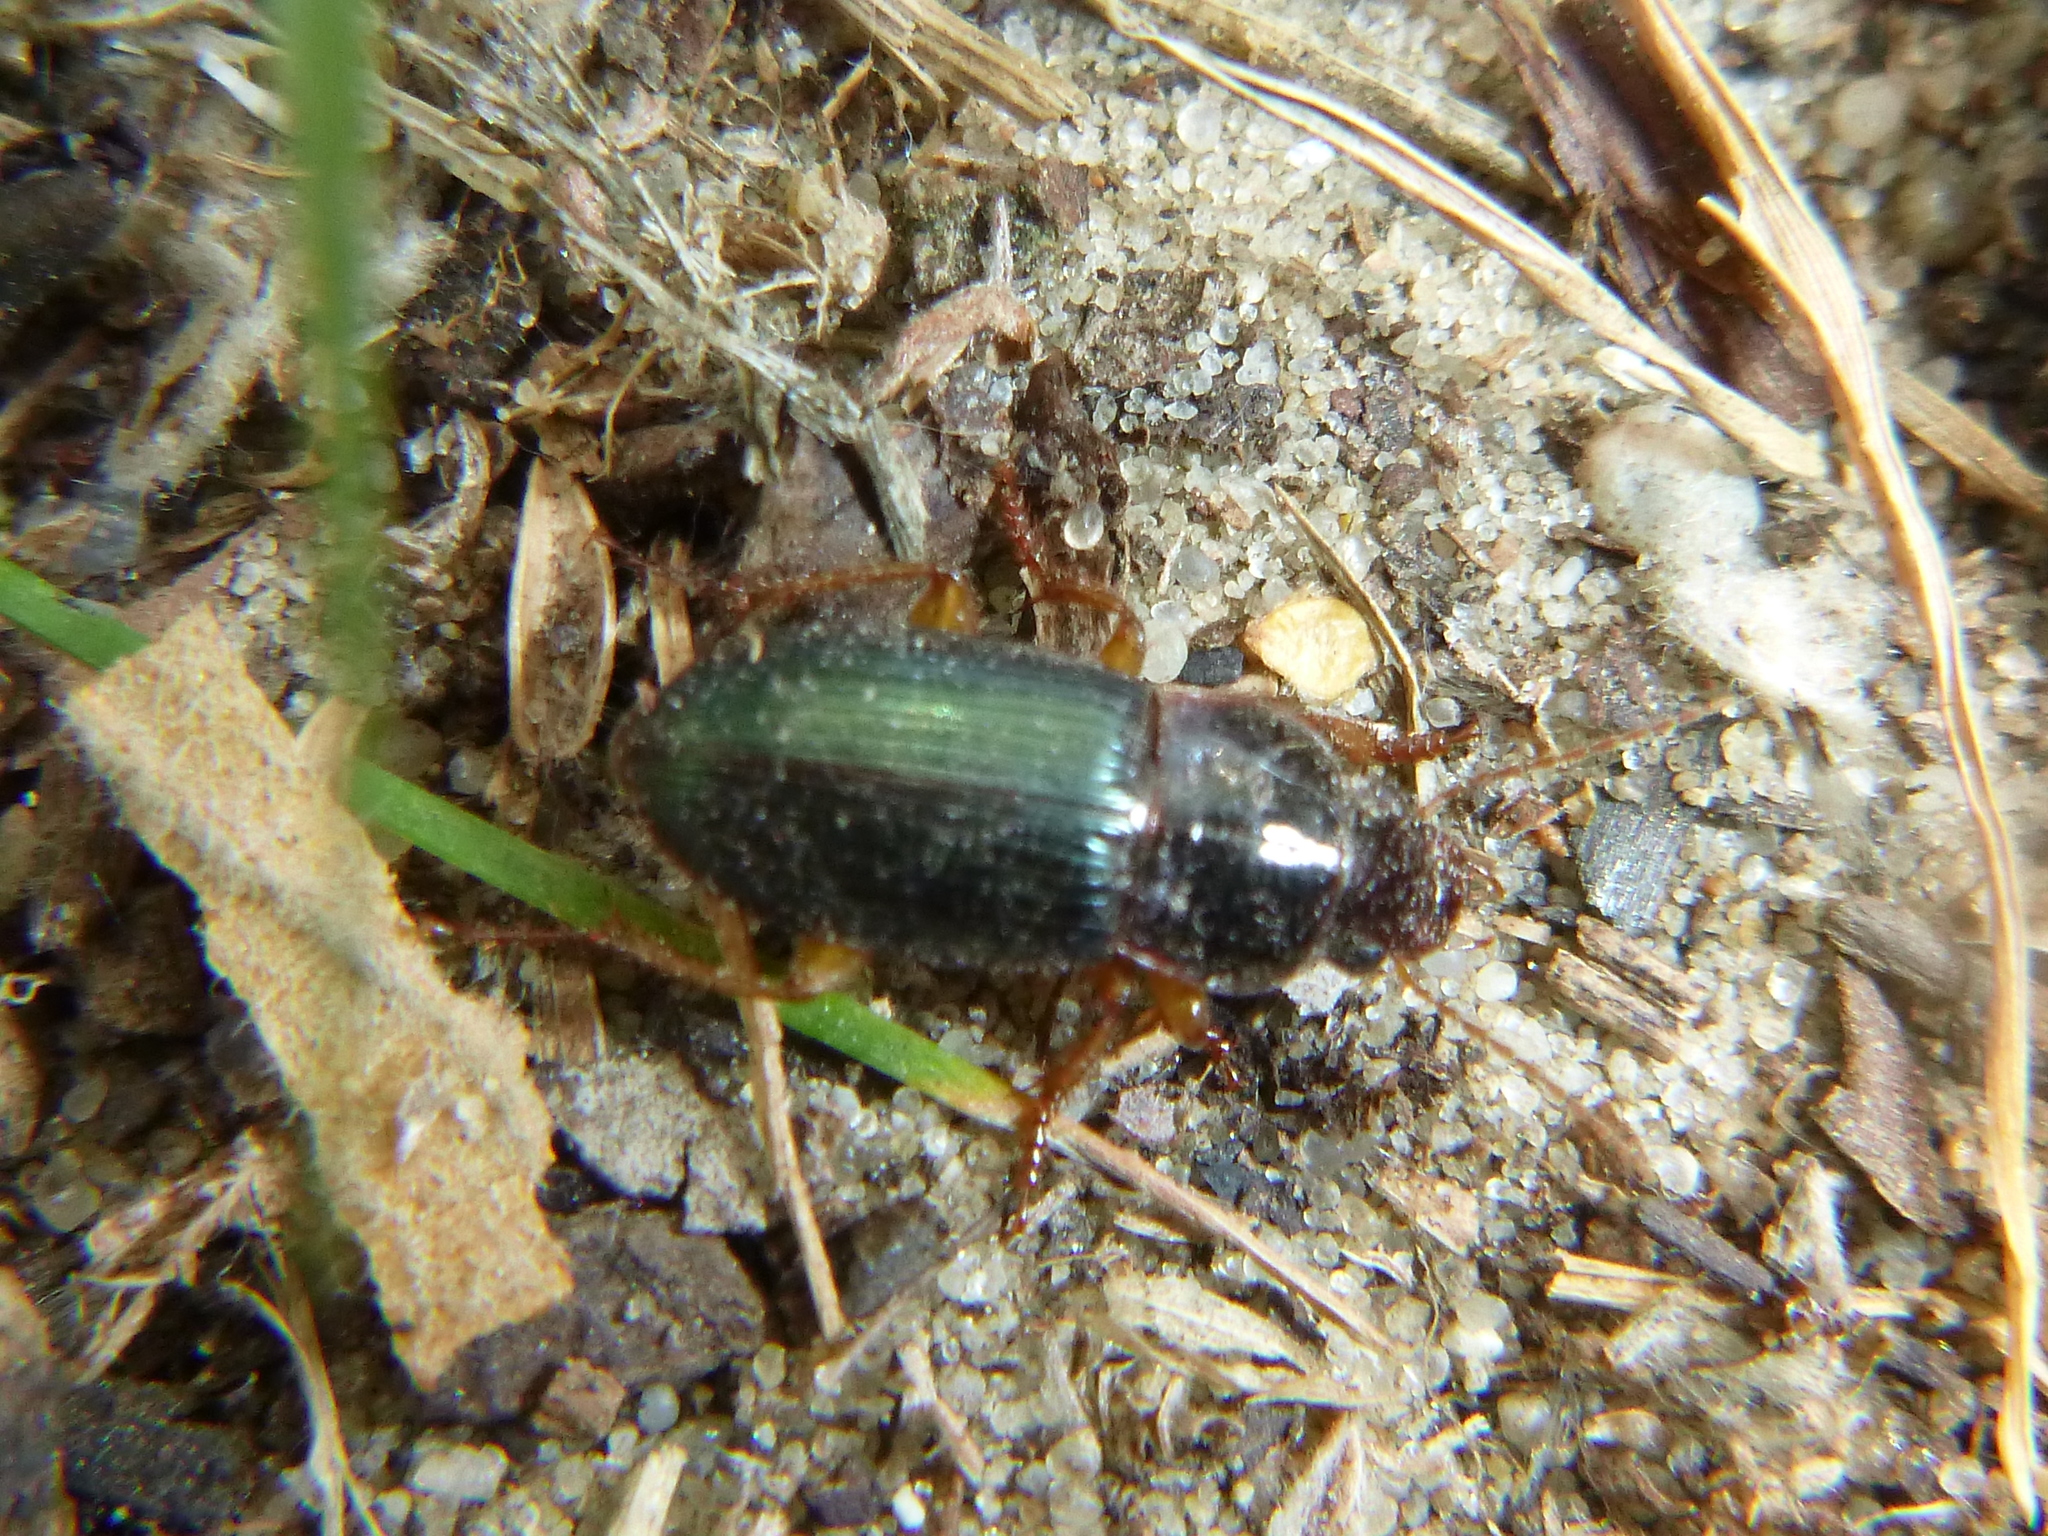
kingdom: Animalia
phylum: Arthropoda
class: Insecta
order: Coleoptera
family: Carabidae
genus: Harpalus
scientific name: Harpalus smaragdinus
